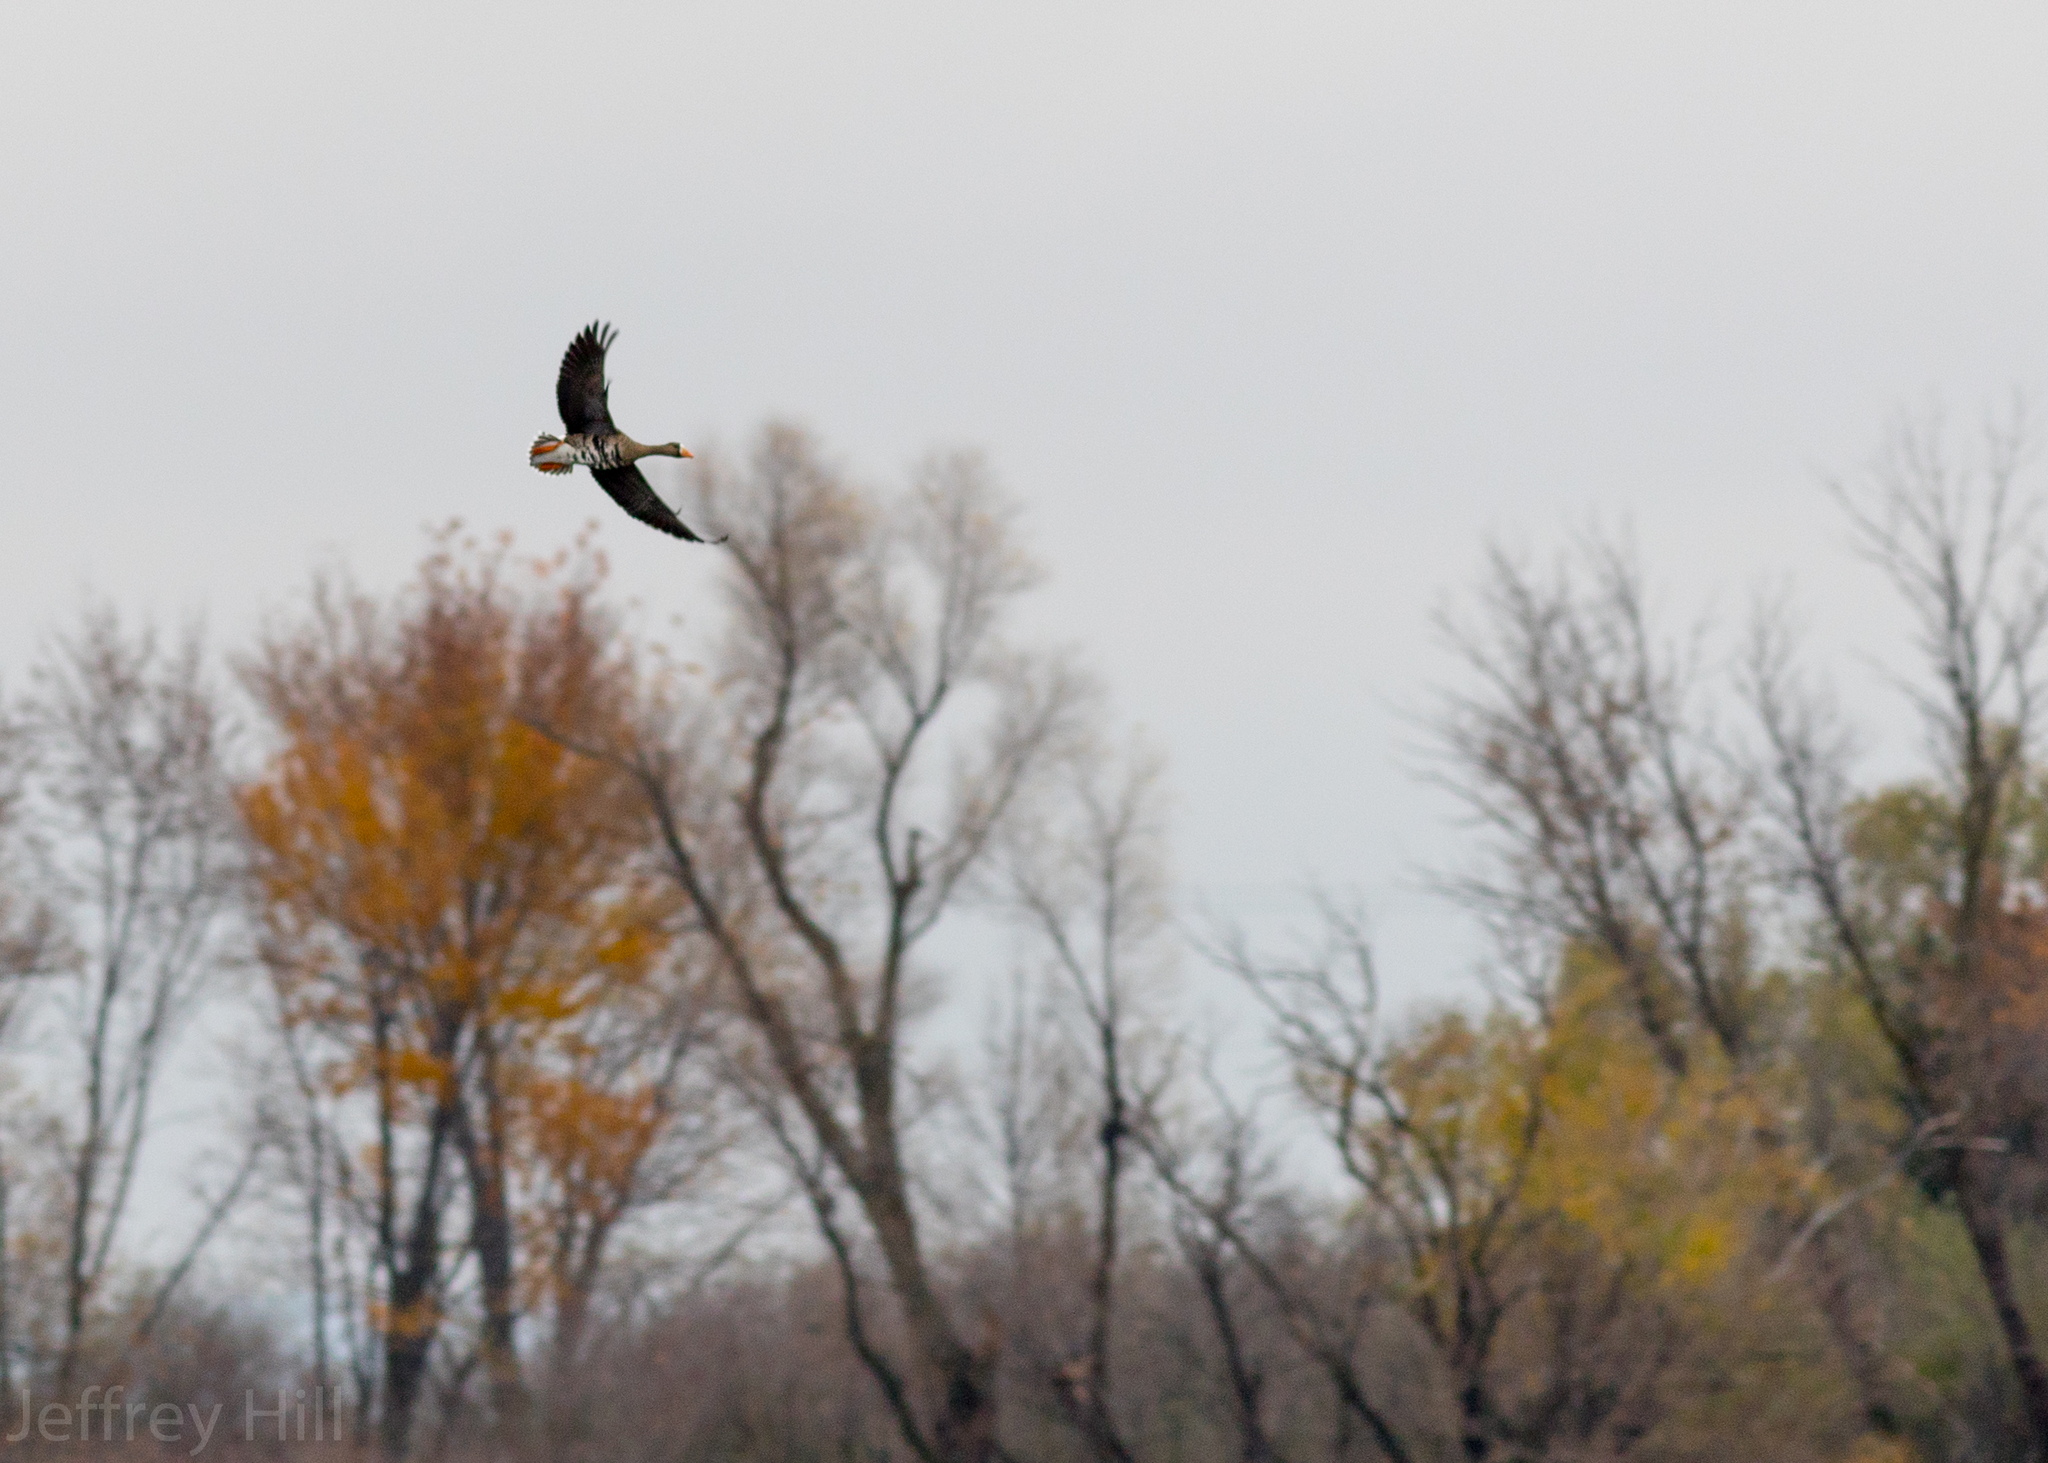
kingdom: Animalia
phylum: Chordata
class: Aves
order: Anseriformes
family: Anatidae
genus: Anser
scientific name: Anser albifrons
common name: Greater white-fronted goose
